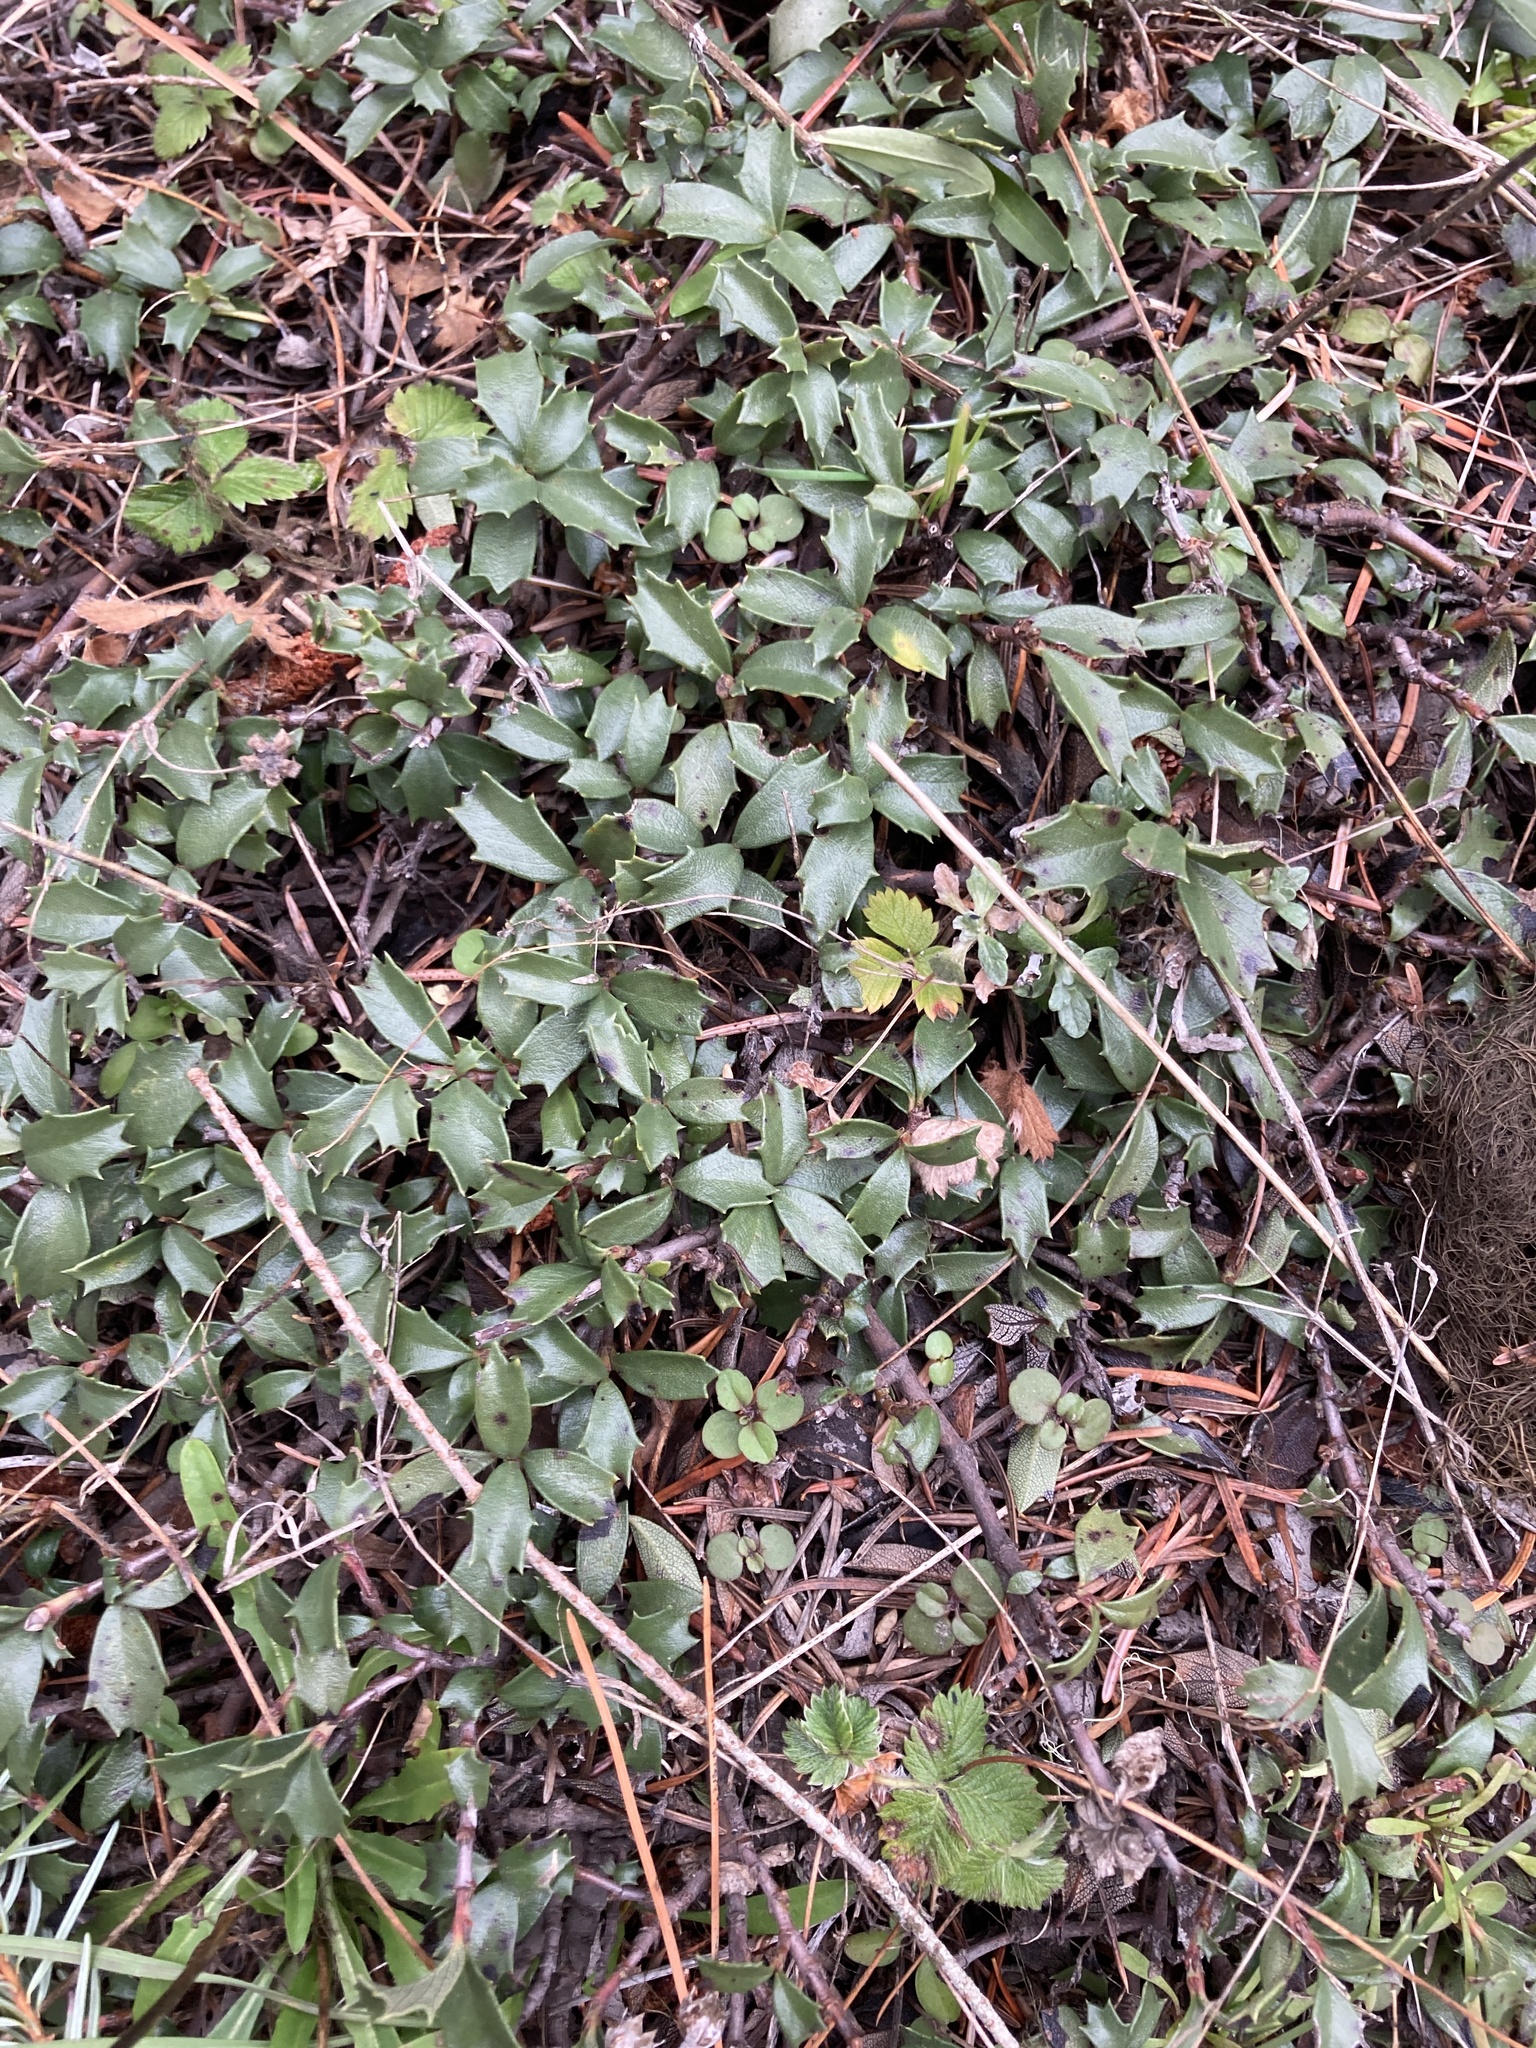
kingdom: Plantae
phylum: Tracheophyta
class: Magnoliopsida
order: Rosales
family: Rhamnaceae
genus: Ceanothus
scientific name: Ceanothus prostratus
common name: Mahala-mat
